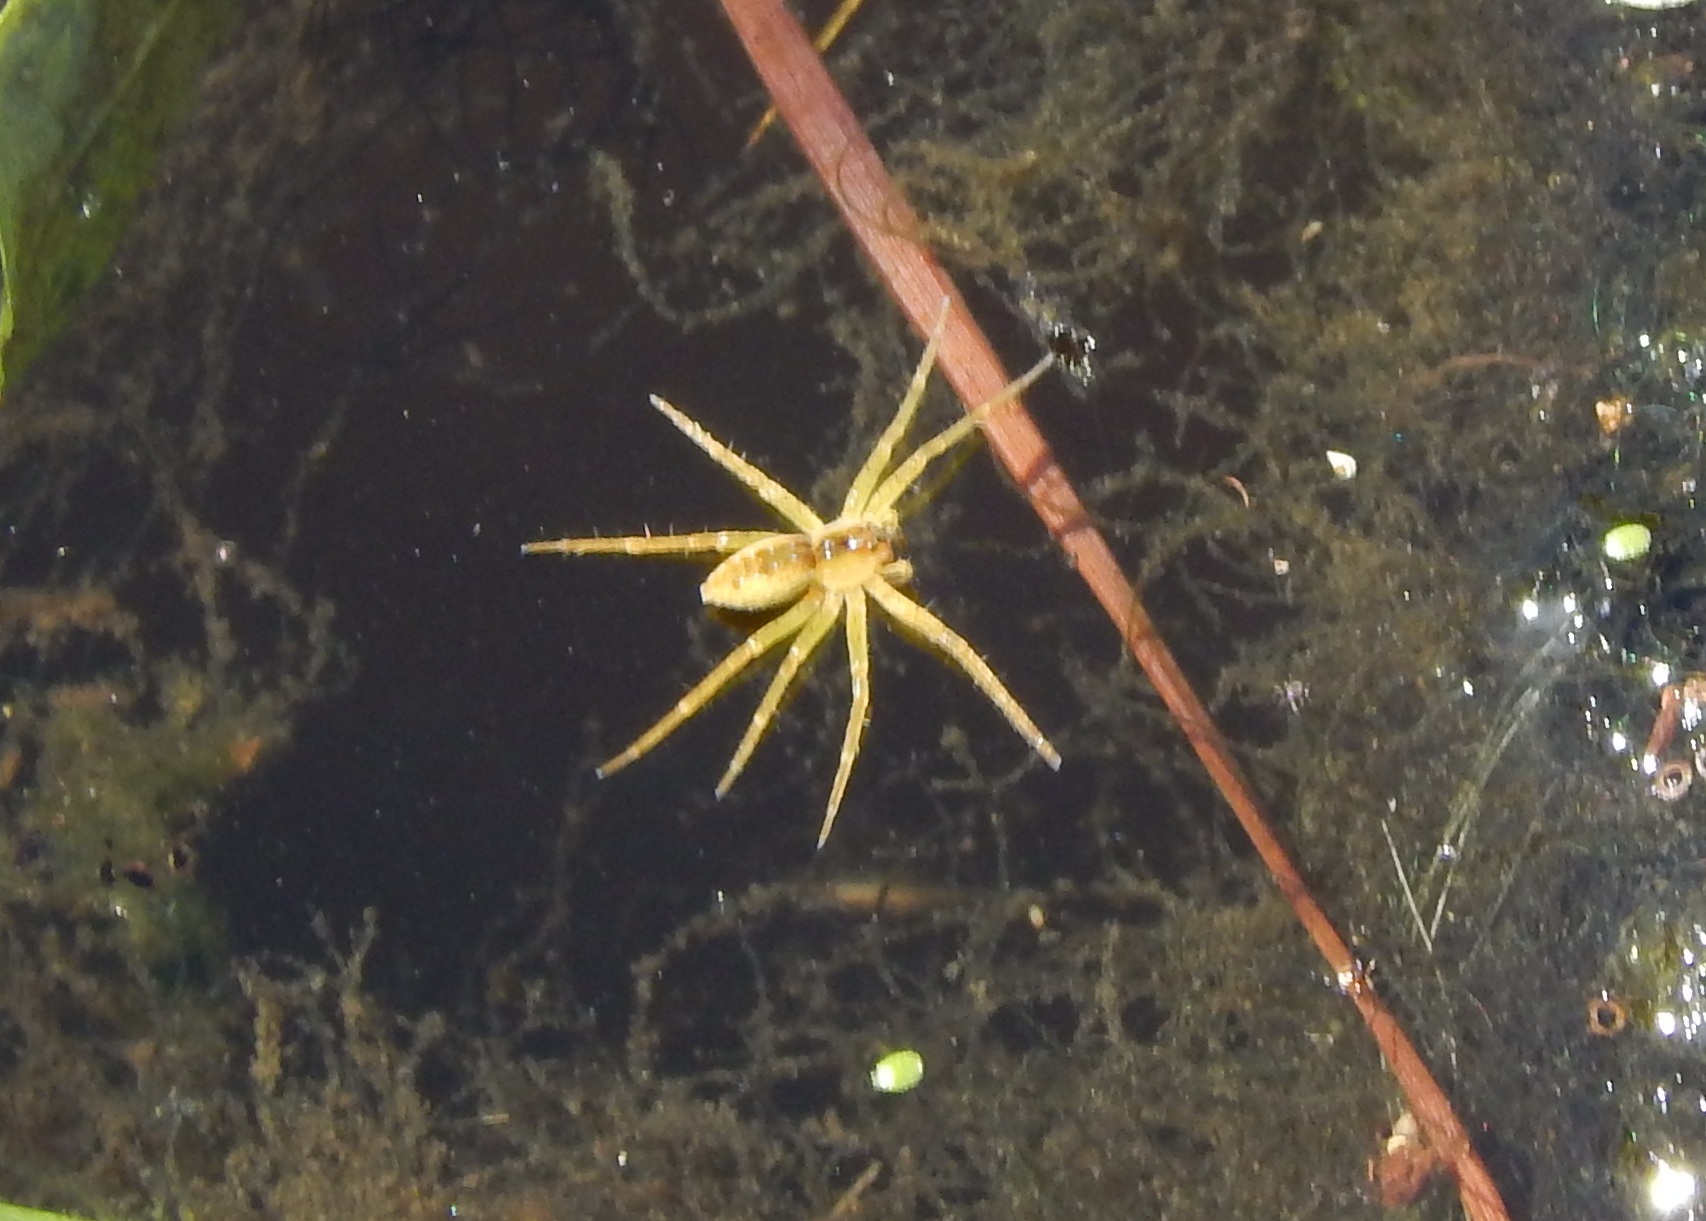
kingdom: Animalia
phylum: Arthropoda
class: Arachnida
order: Araneae
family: Pisauridae
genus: Dolomedes
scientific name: Dolomedes triton
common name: Six-spotted fishing spider
